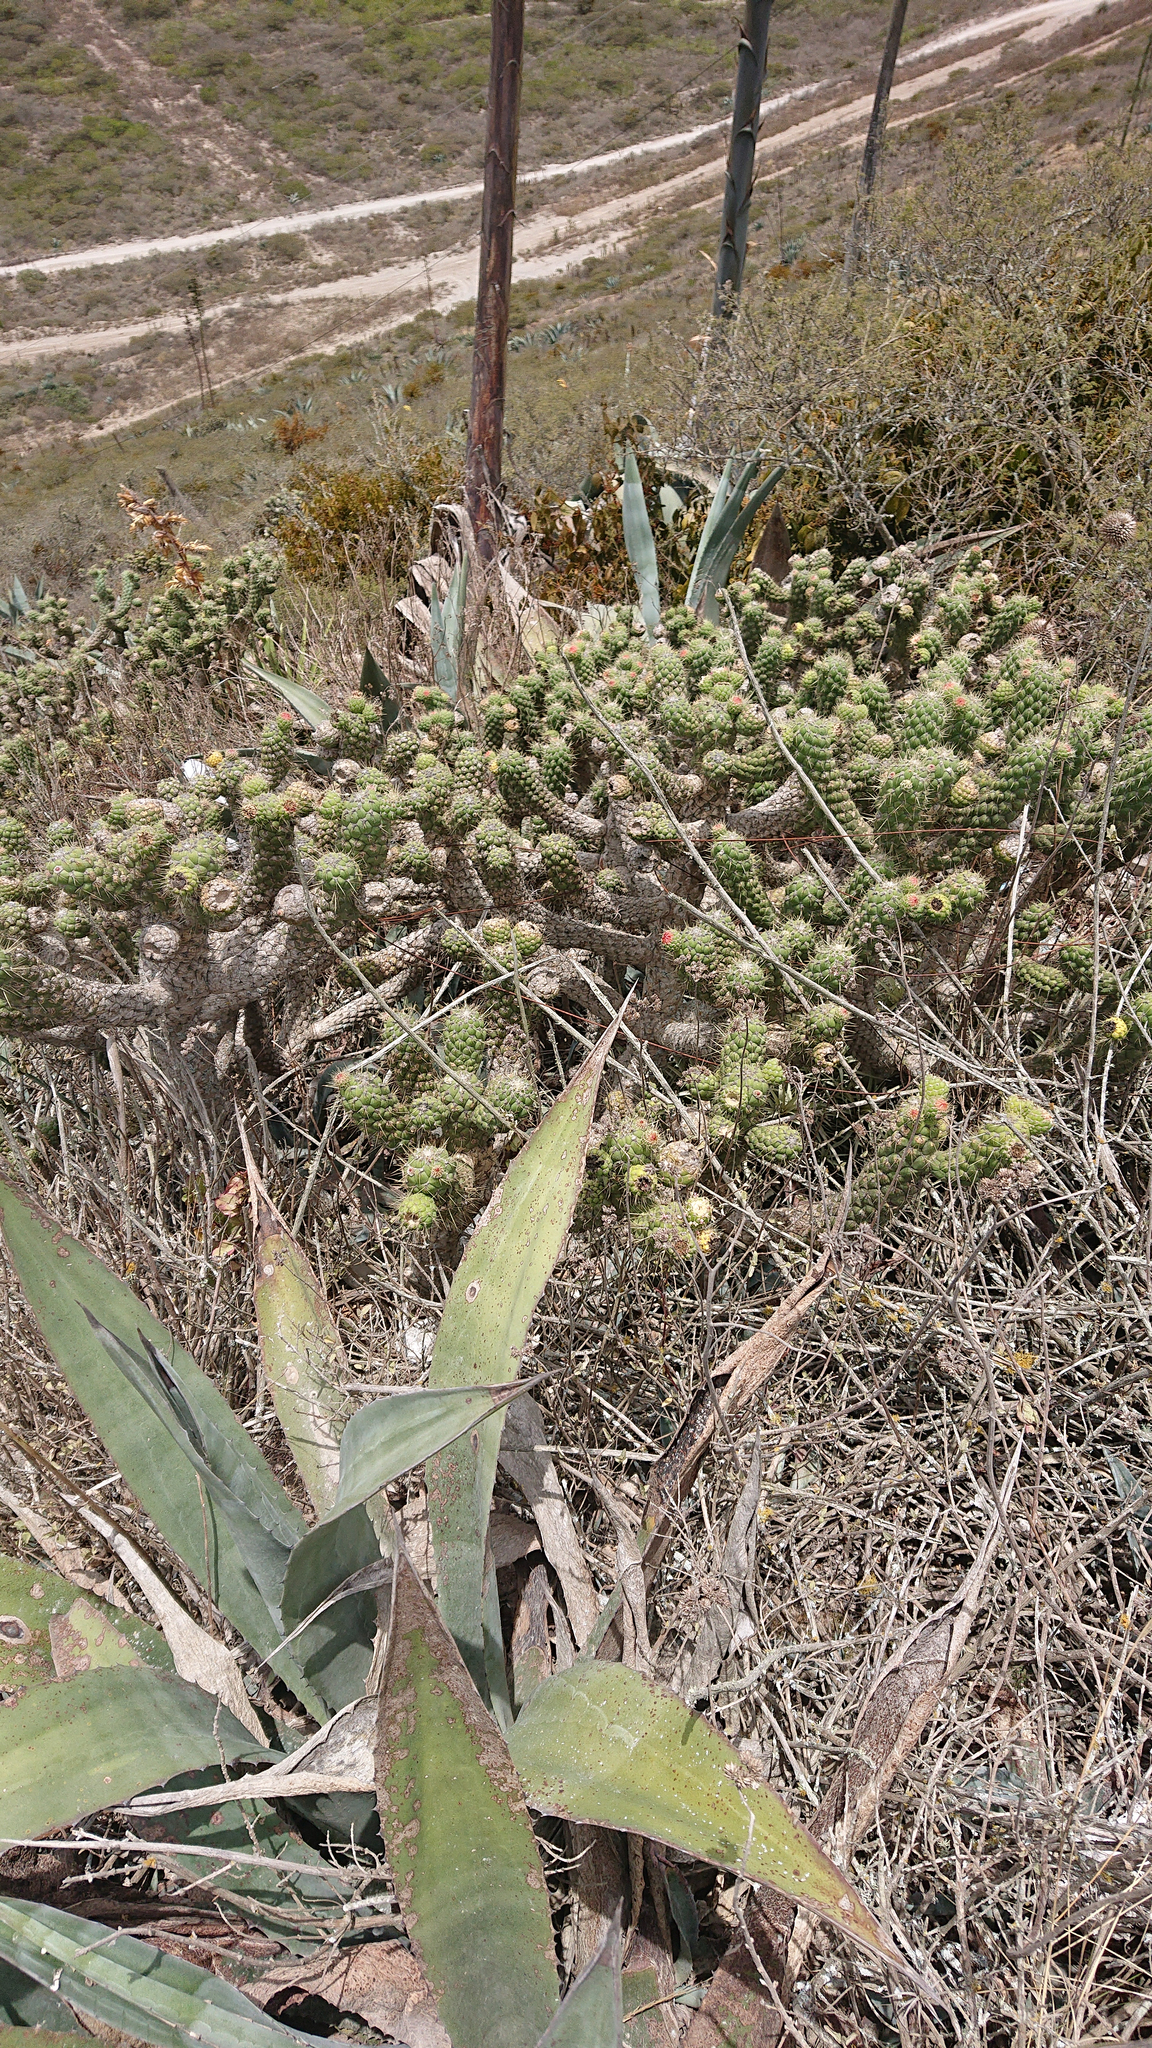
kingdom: Plantae
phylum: Tracheophyta
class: Magnoliopsida
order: Caryophyllales
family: Cactaceae
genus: Austrocylindropuntia
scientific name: Austrocylindropuntia cylindrica
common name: Cane cactus
